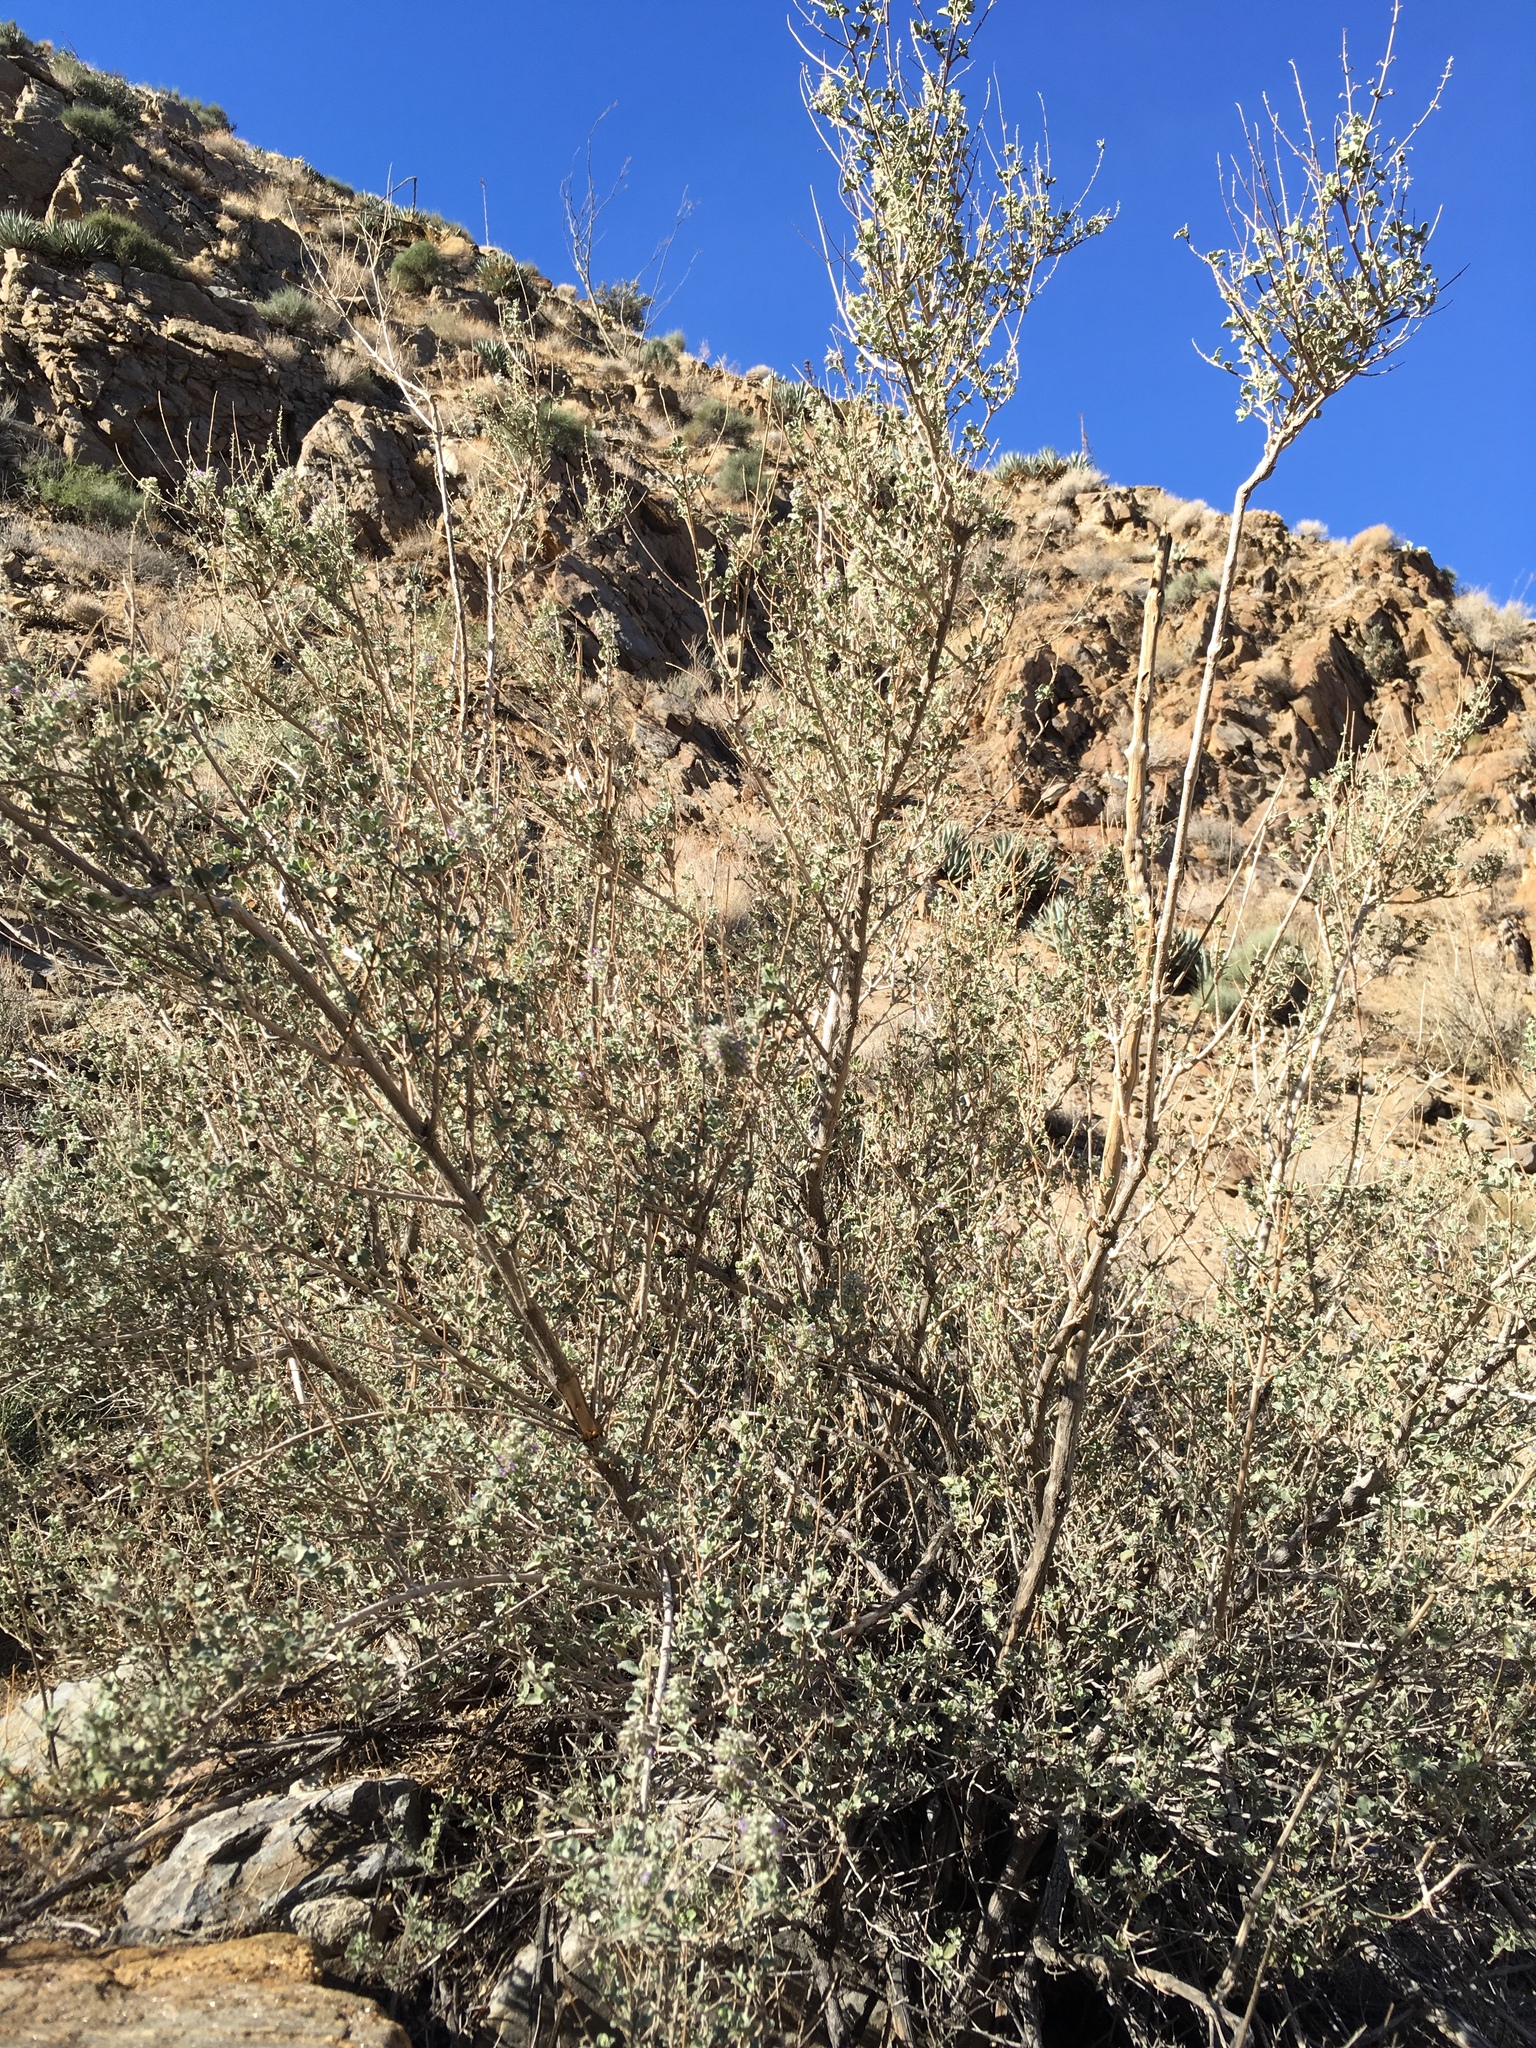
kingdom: Plantae
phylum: Tracheophyta
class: Magnoliopsida
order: Lamiales
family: Lamiaceae
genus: Condea
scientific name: Condea emoryi
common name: Chia
